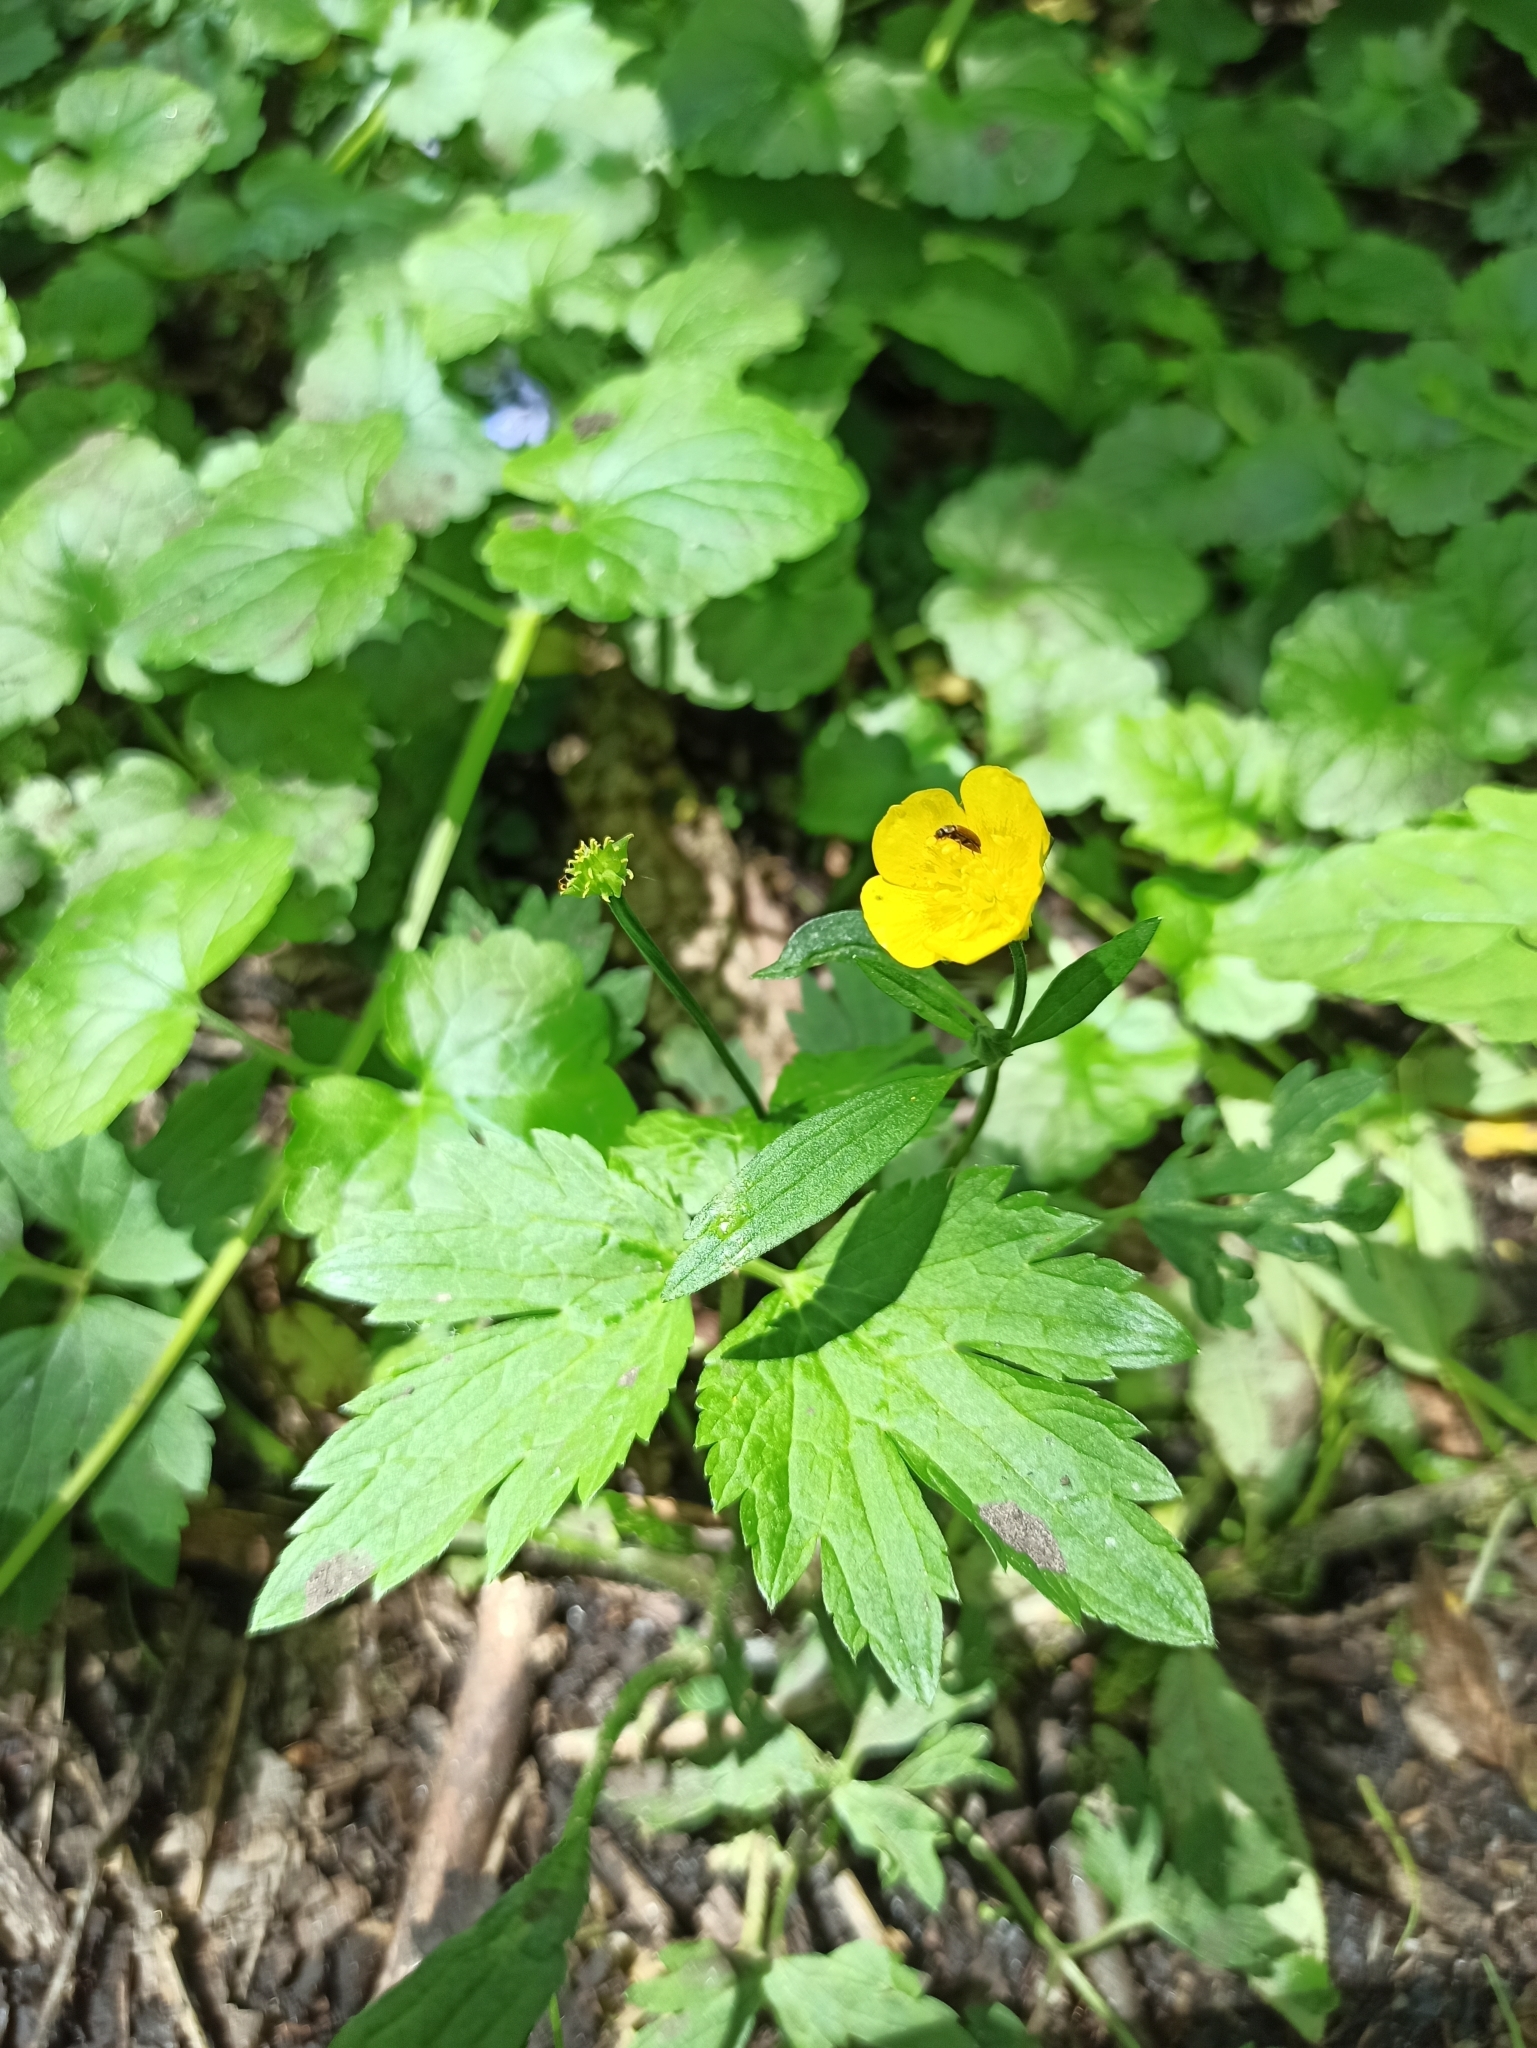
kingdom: Plantae
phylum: Tracheophyta
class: Magnoliopsida
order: Ranunculales
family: Ranunculaceae
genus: Ranunculus
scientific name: Ranunculus repens
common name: Creeping buttercup
